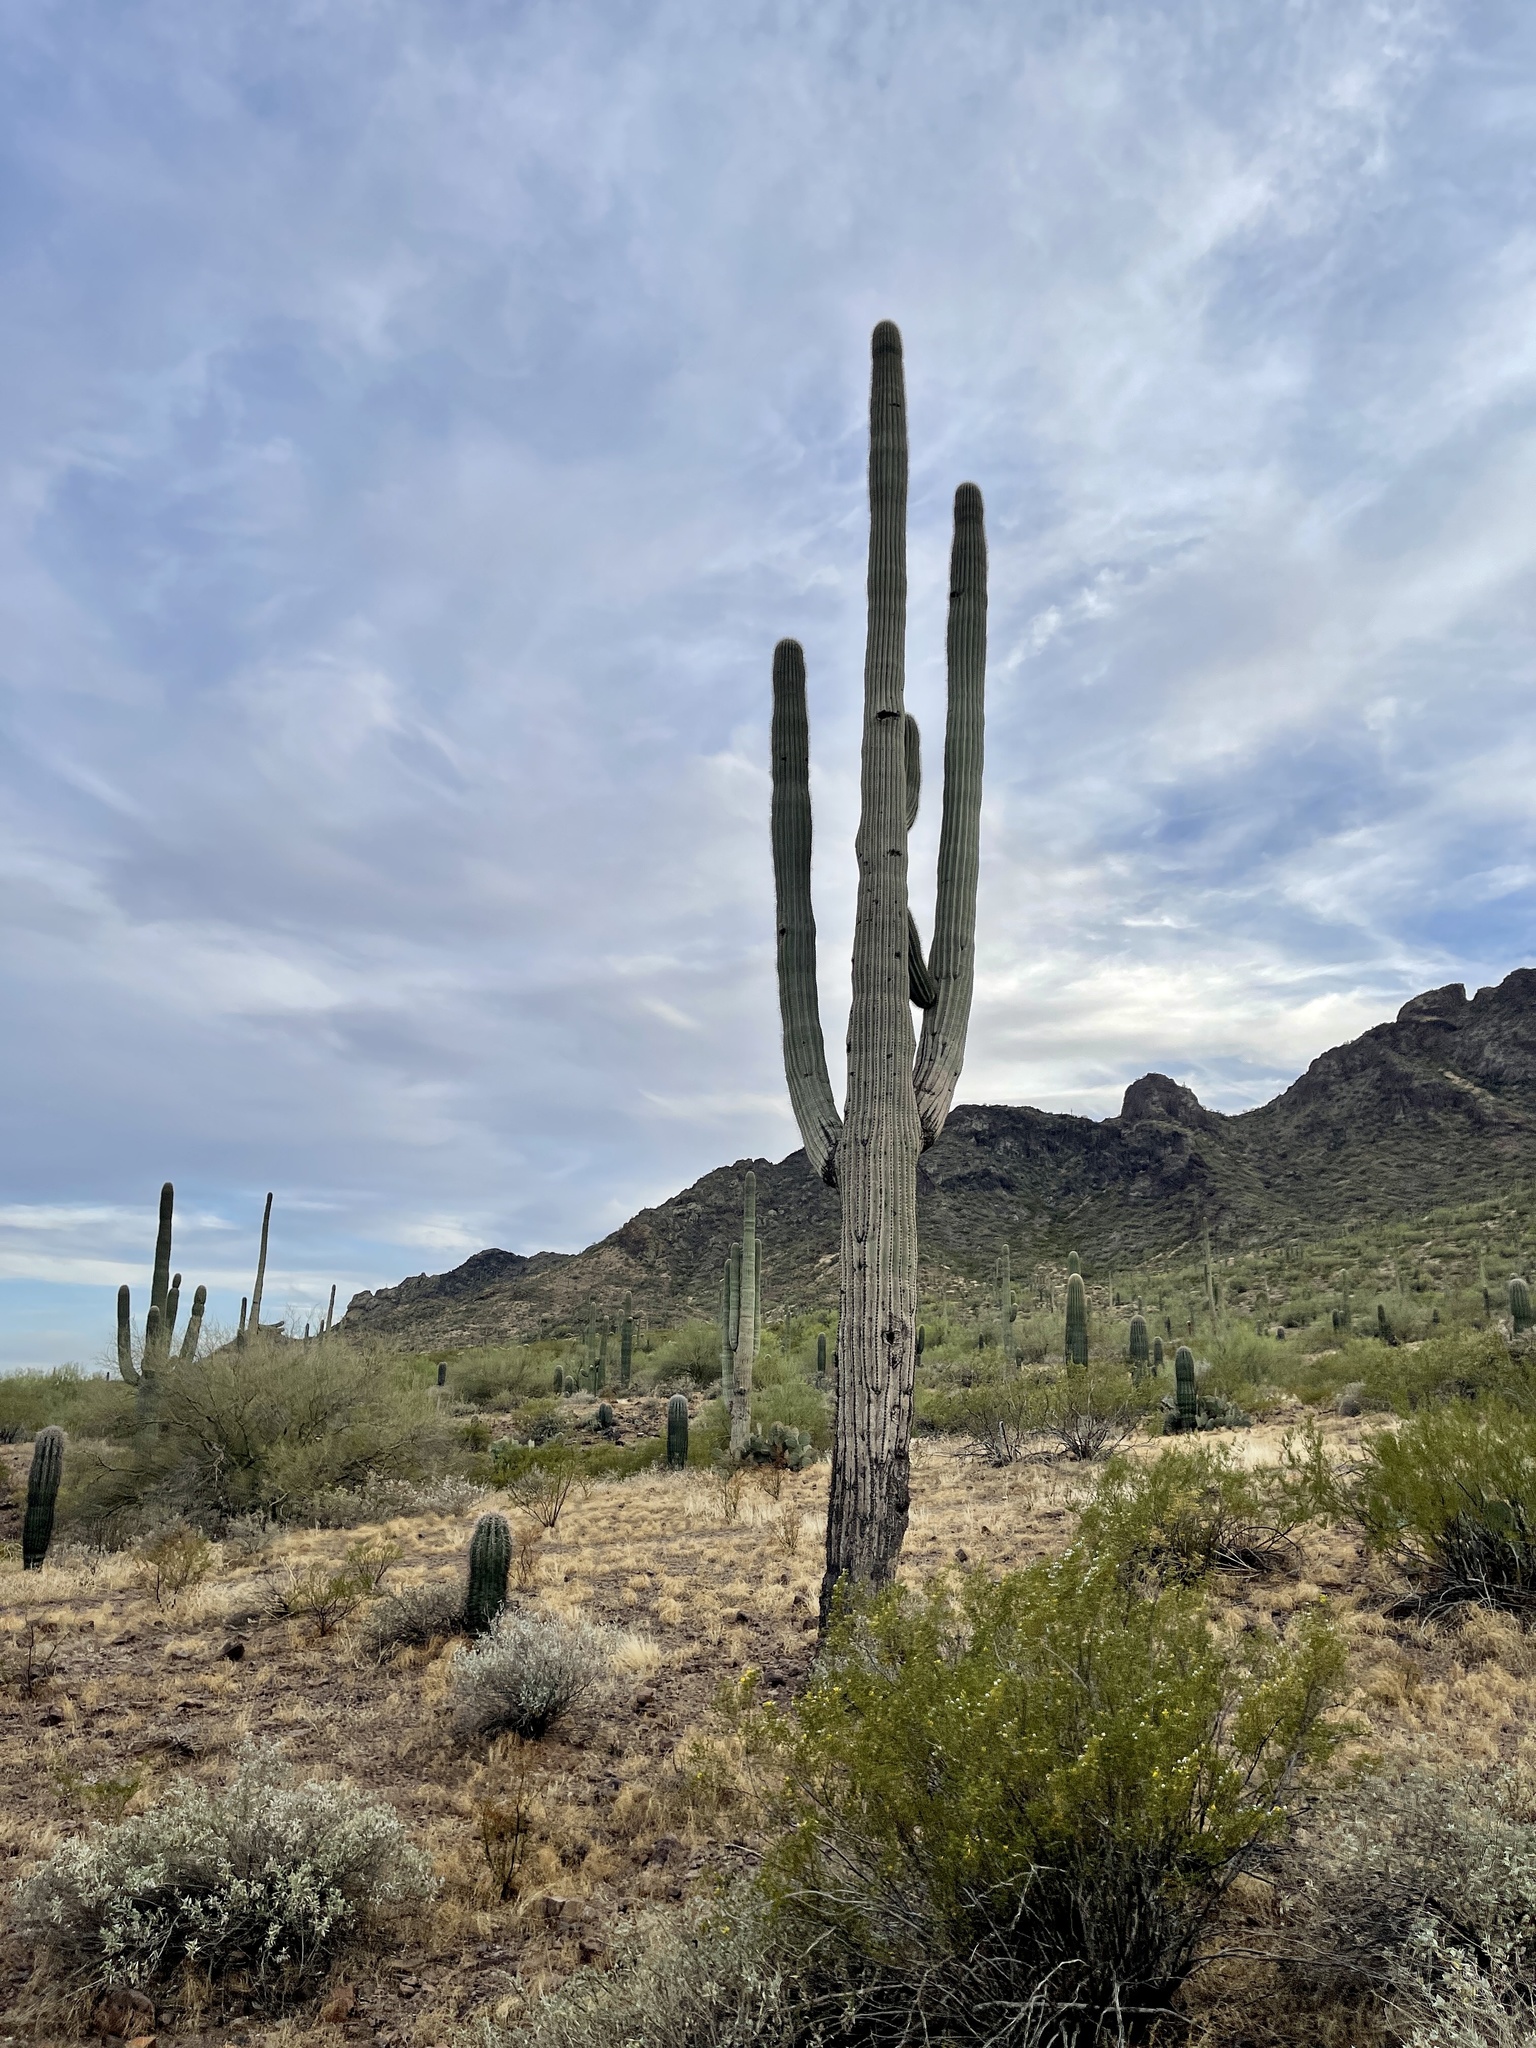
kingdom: Plantae
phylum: Tracheophyta
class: Magnoliopsida
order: Caryophyllales
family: Cactaceae
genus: Carnegiea
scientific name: Carnegiea gigantea
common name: Saguaro
